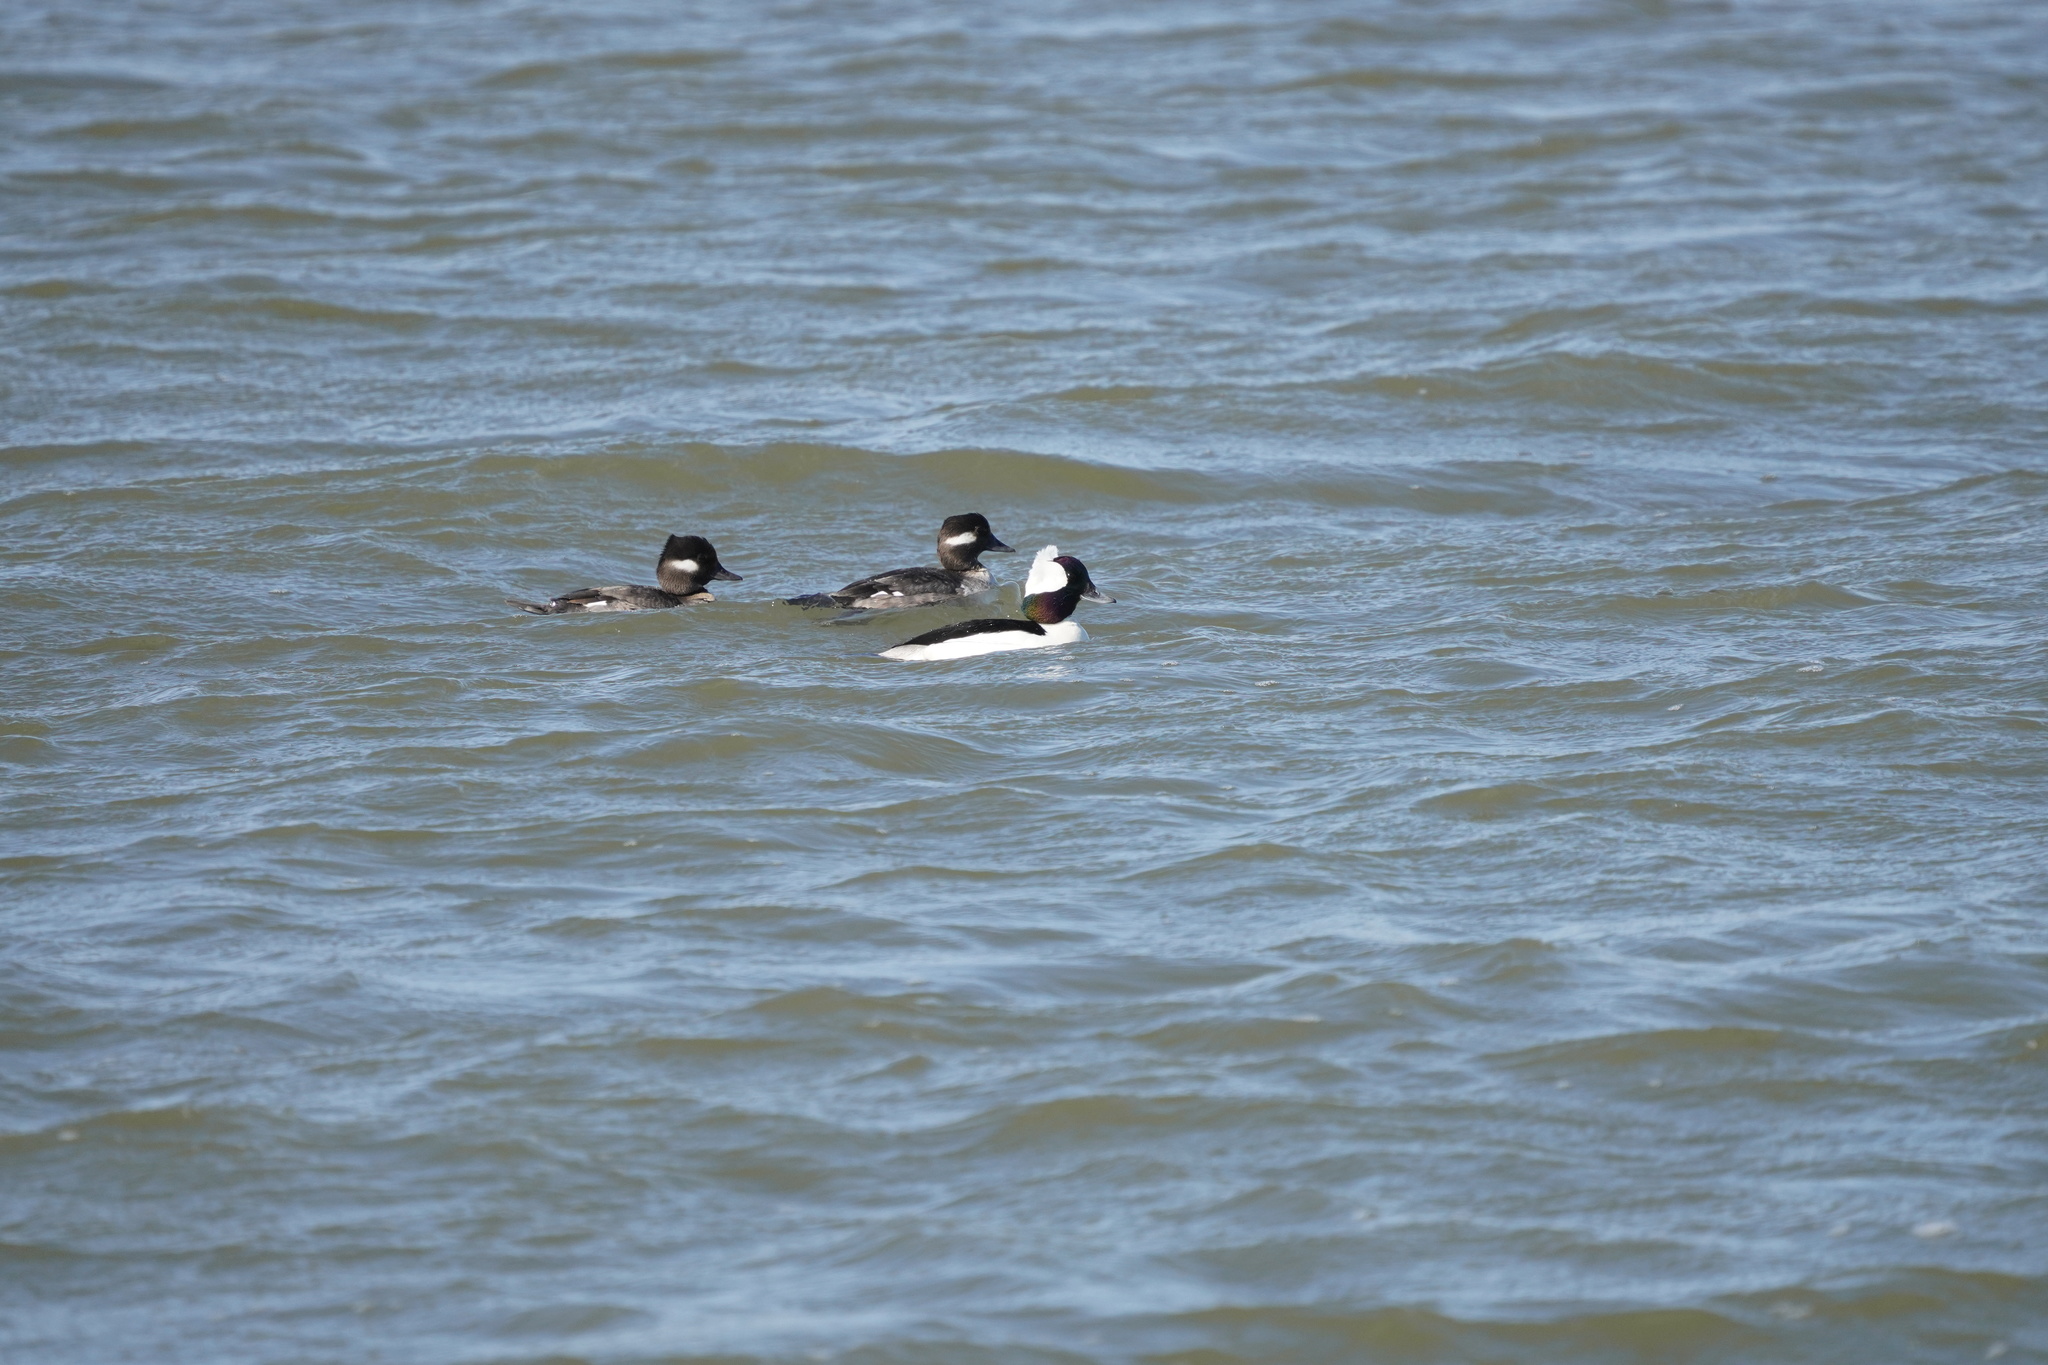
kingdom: Animalia
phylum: Chordata
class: Aves
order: Anseriformes
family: Anatidae
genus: Bucephala
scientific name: Bucephala albeola
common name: Bufflehead
